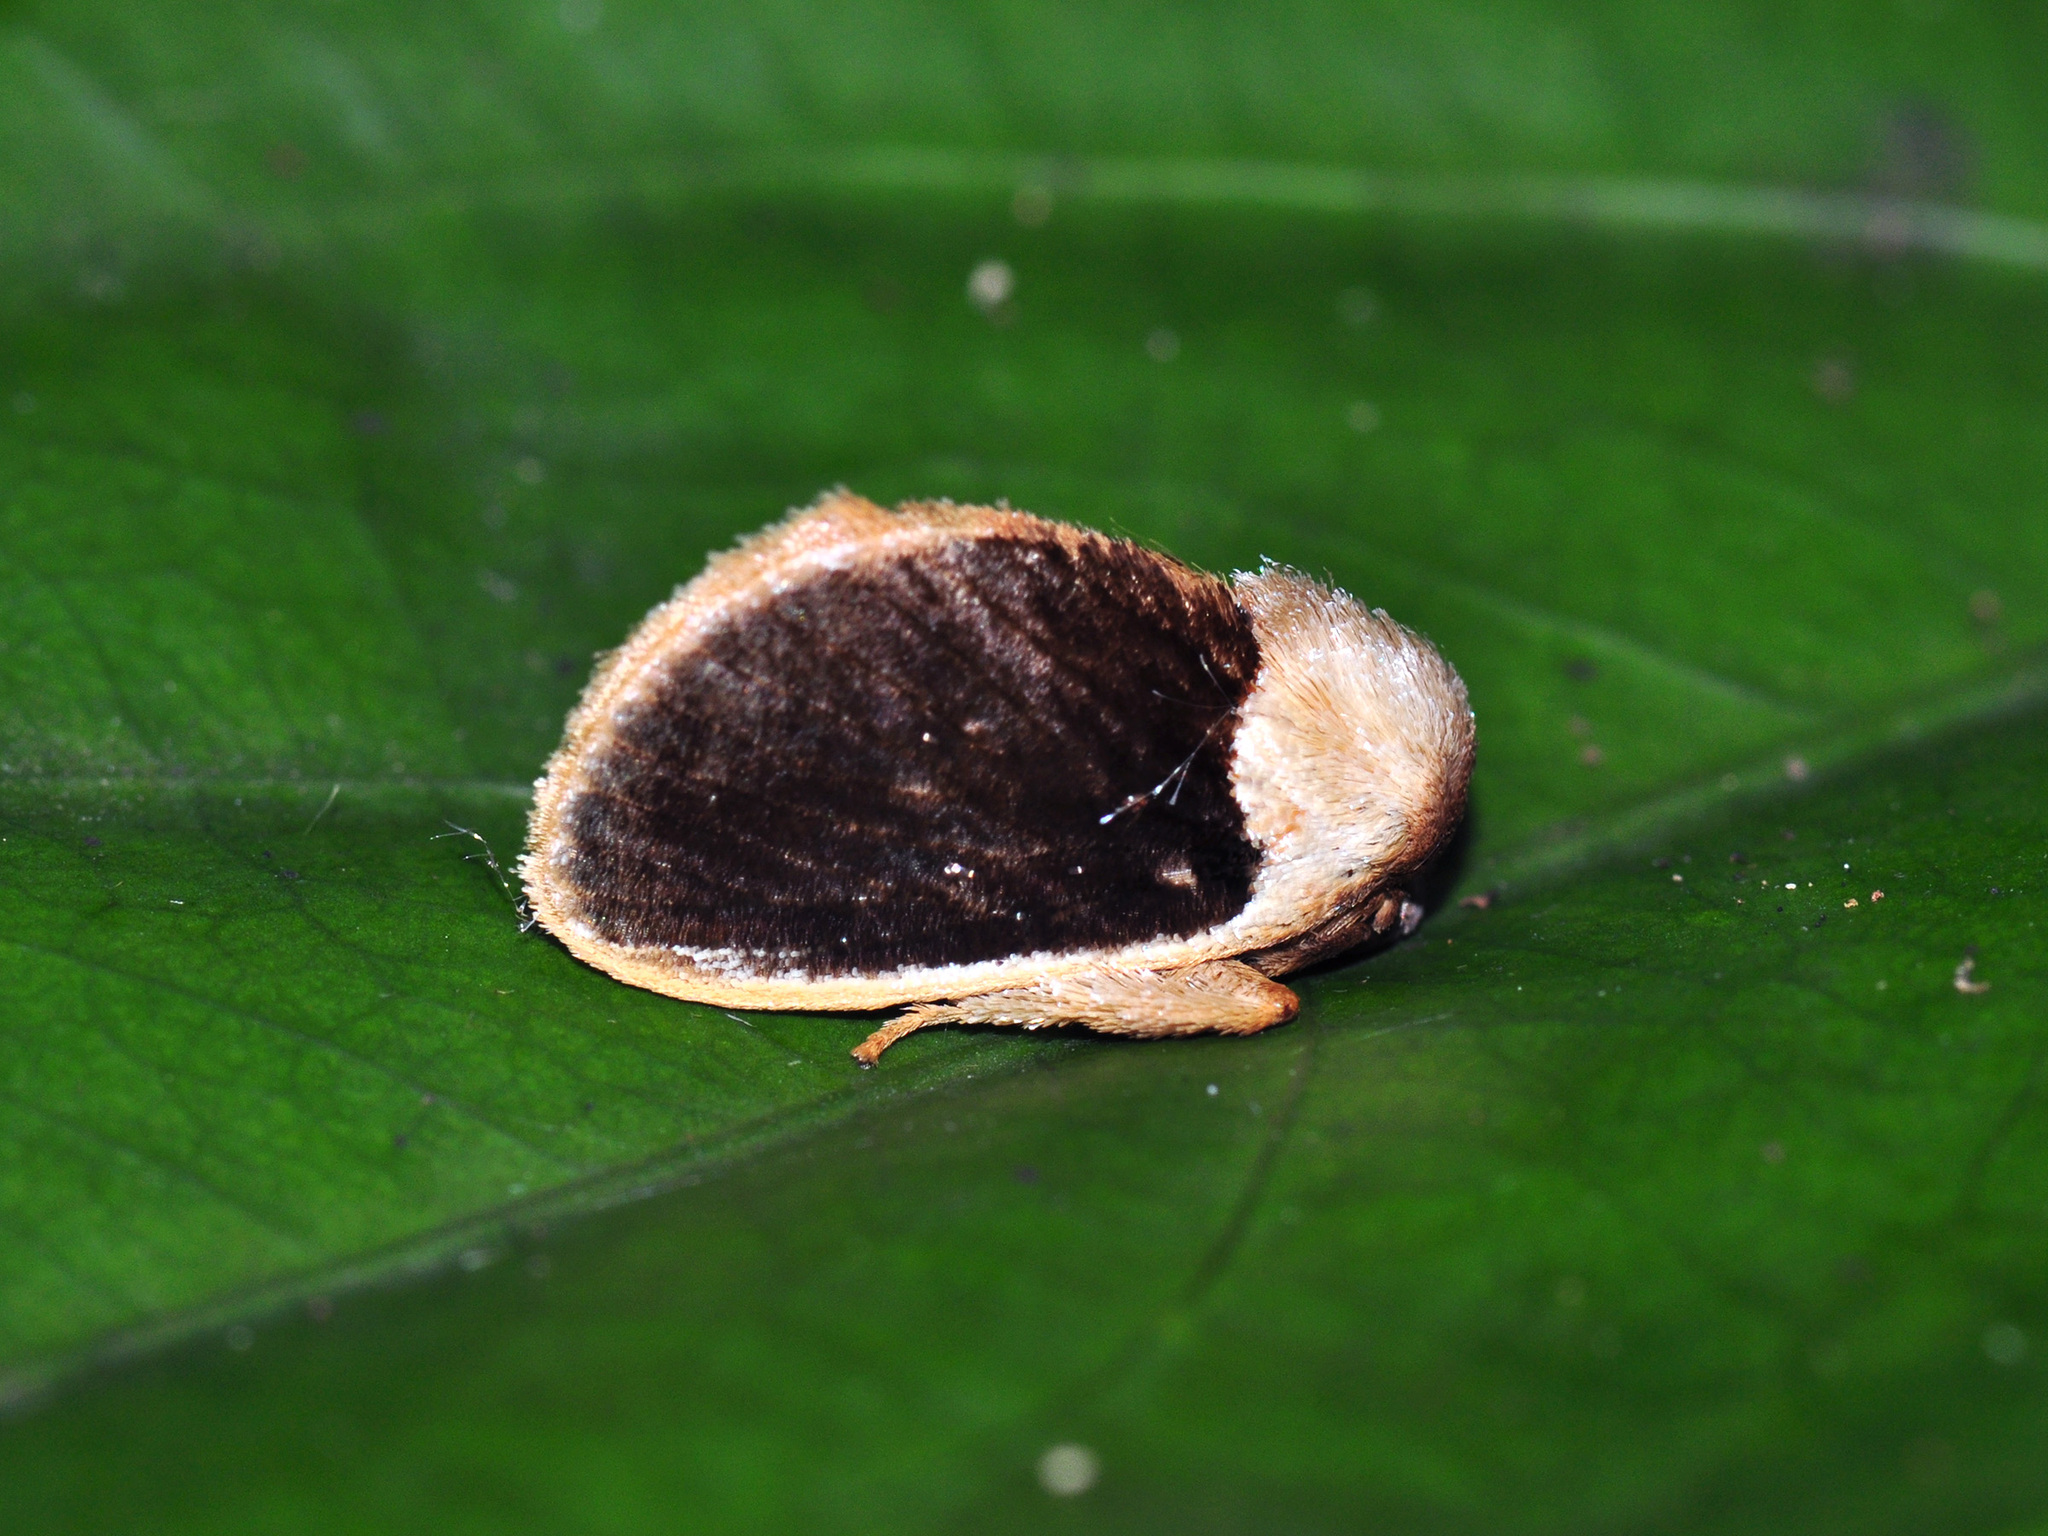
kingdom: Animalia
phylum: Arthropoda
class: Insecta
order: Lepidoptera
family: Limacodidae
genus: Cania
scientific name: Cania bandura
